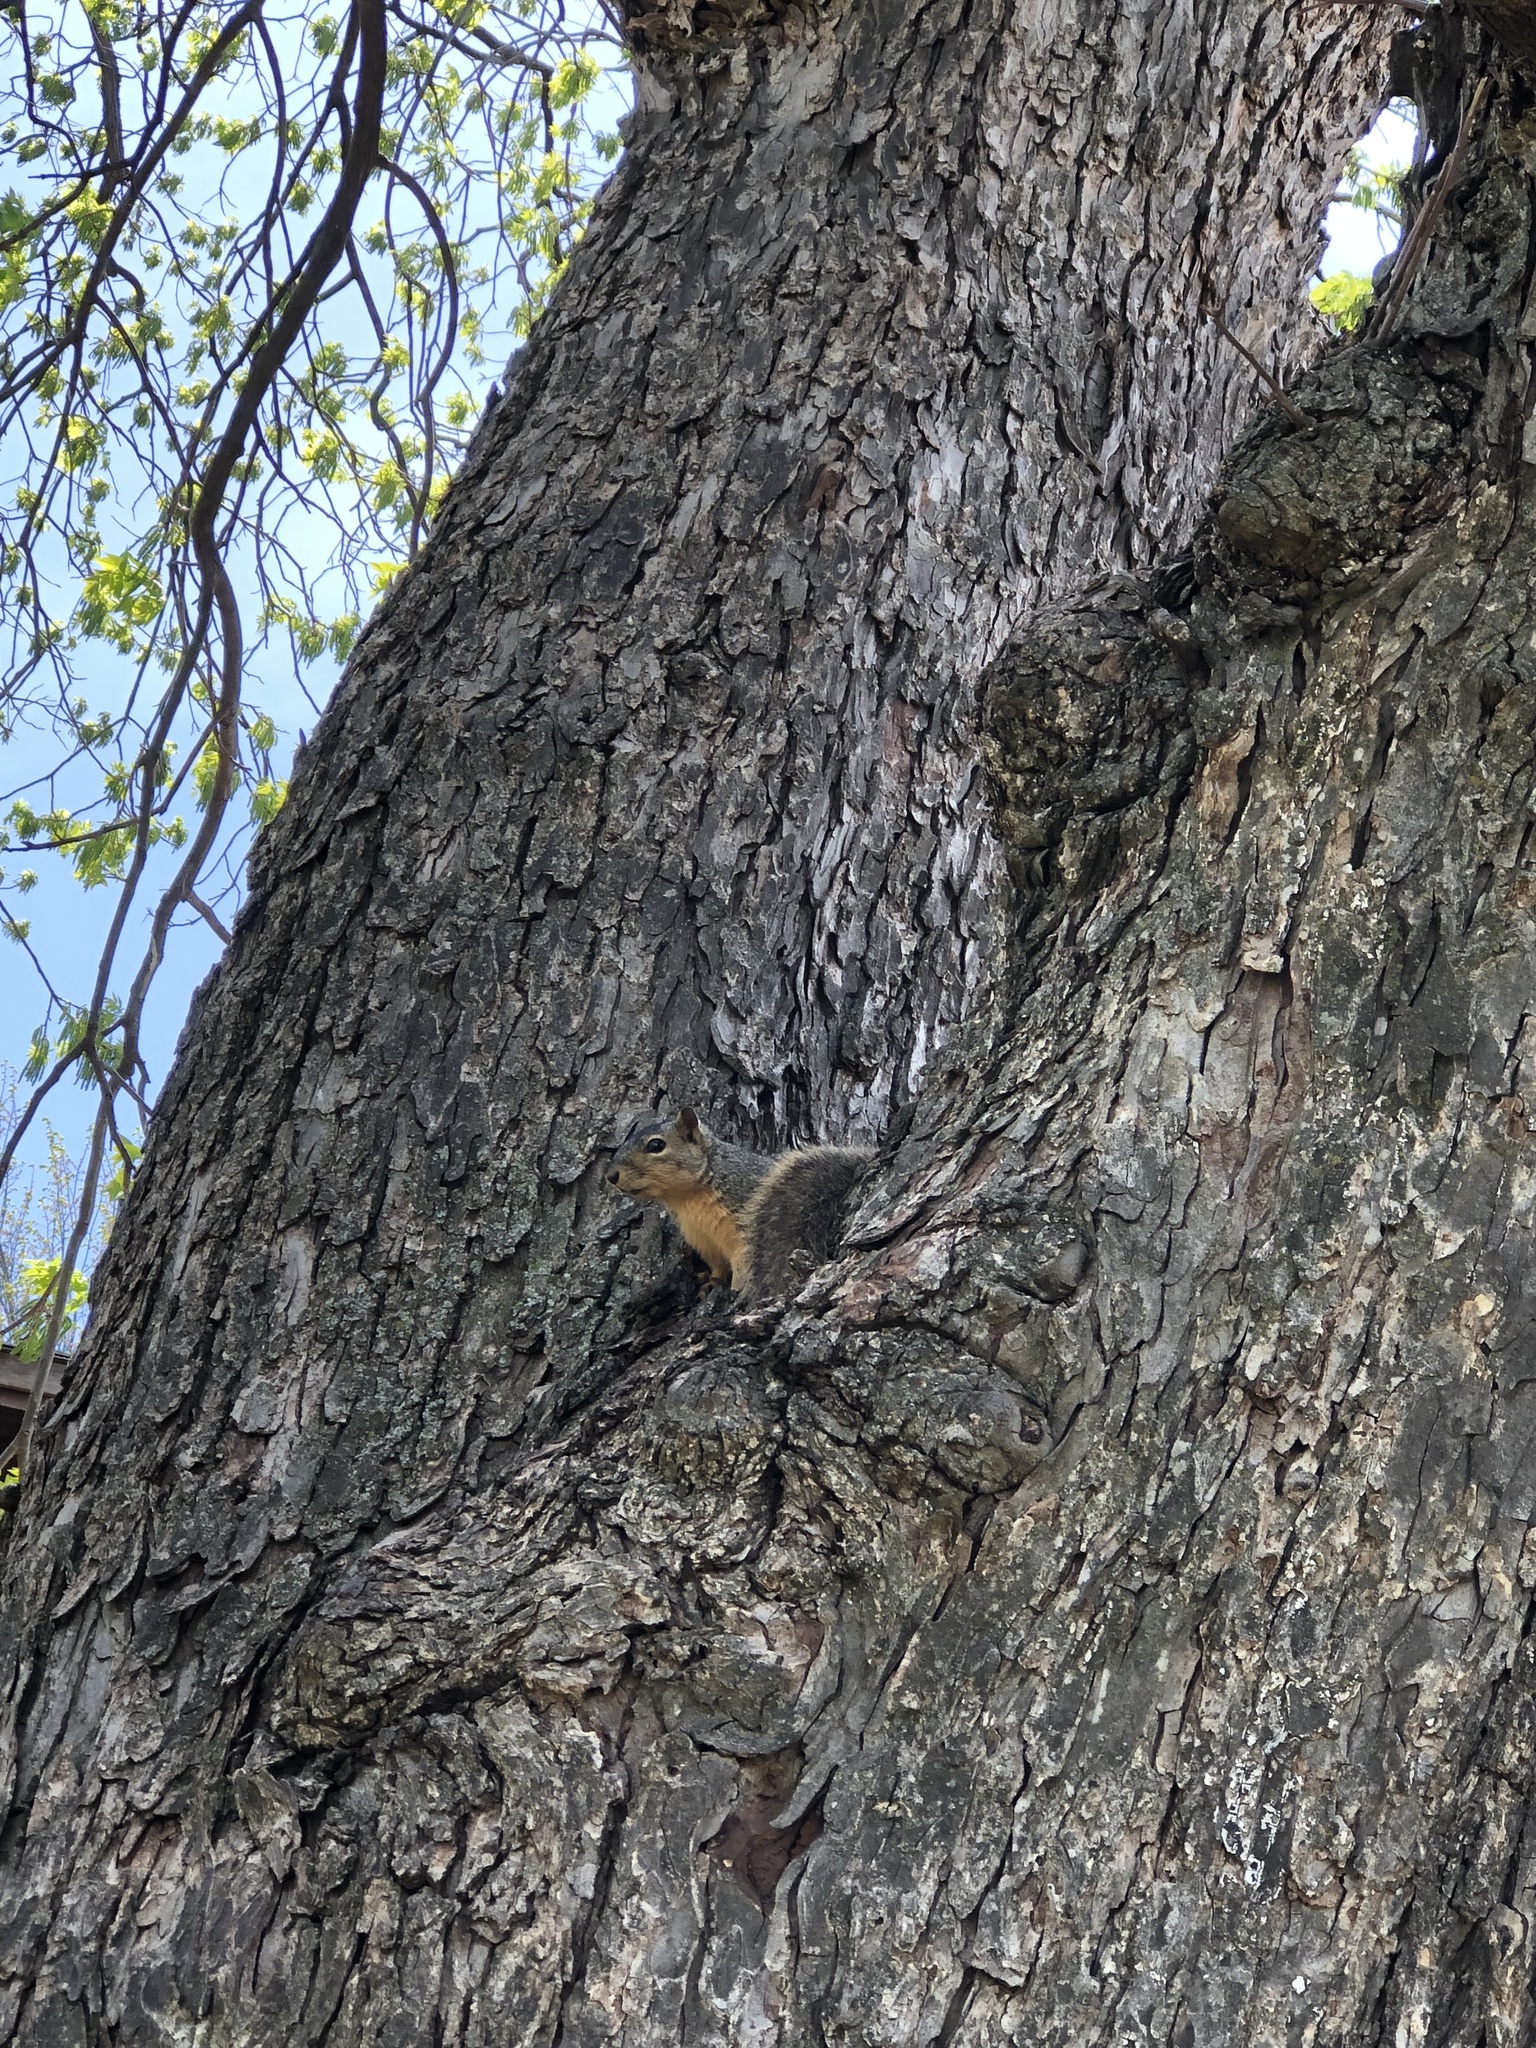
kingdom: Animalia
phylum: Chordata
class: Mammalia
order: Rodentia
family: Sciuridae
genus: Sciurus
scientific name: Sciurus niger
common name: Fox squirrel
